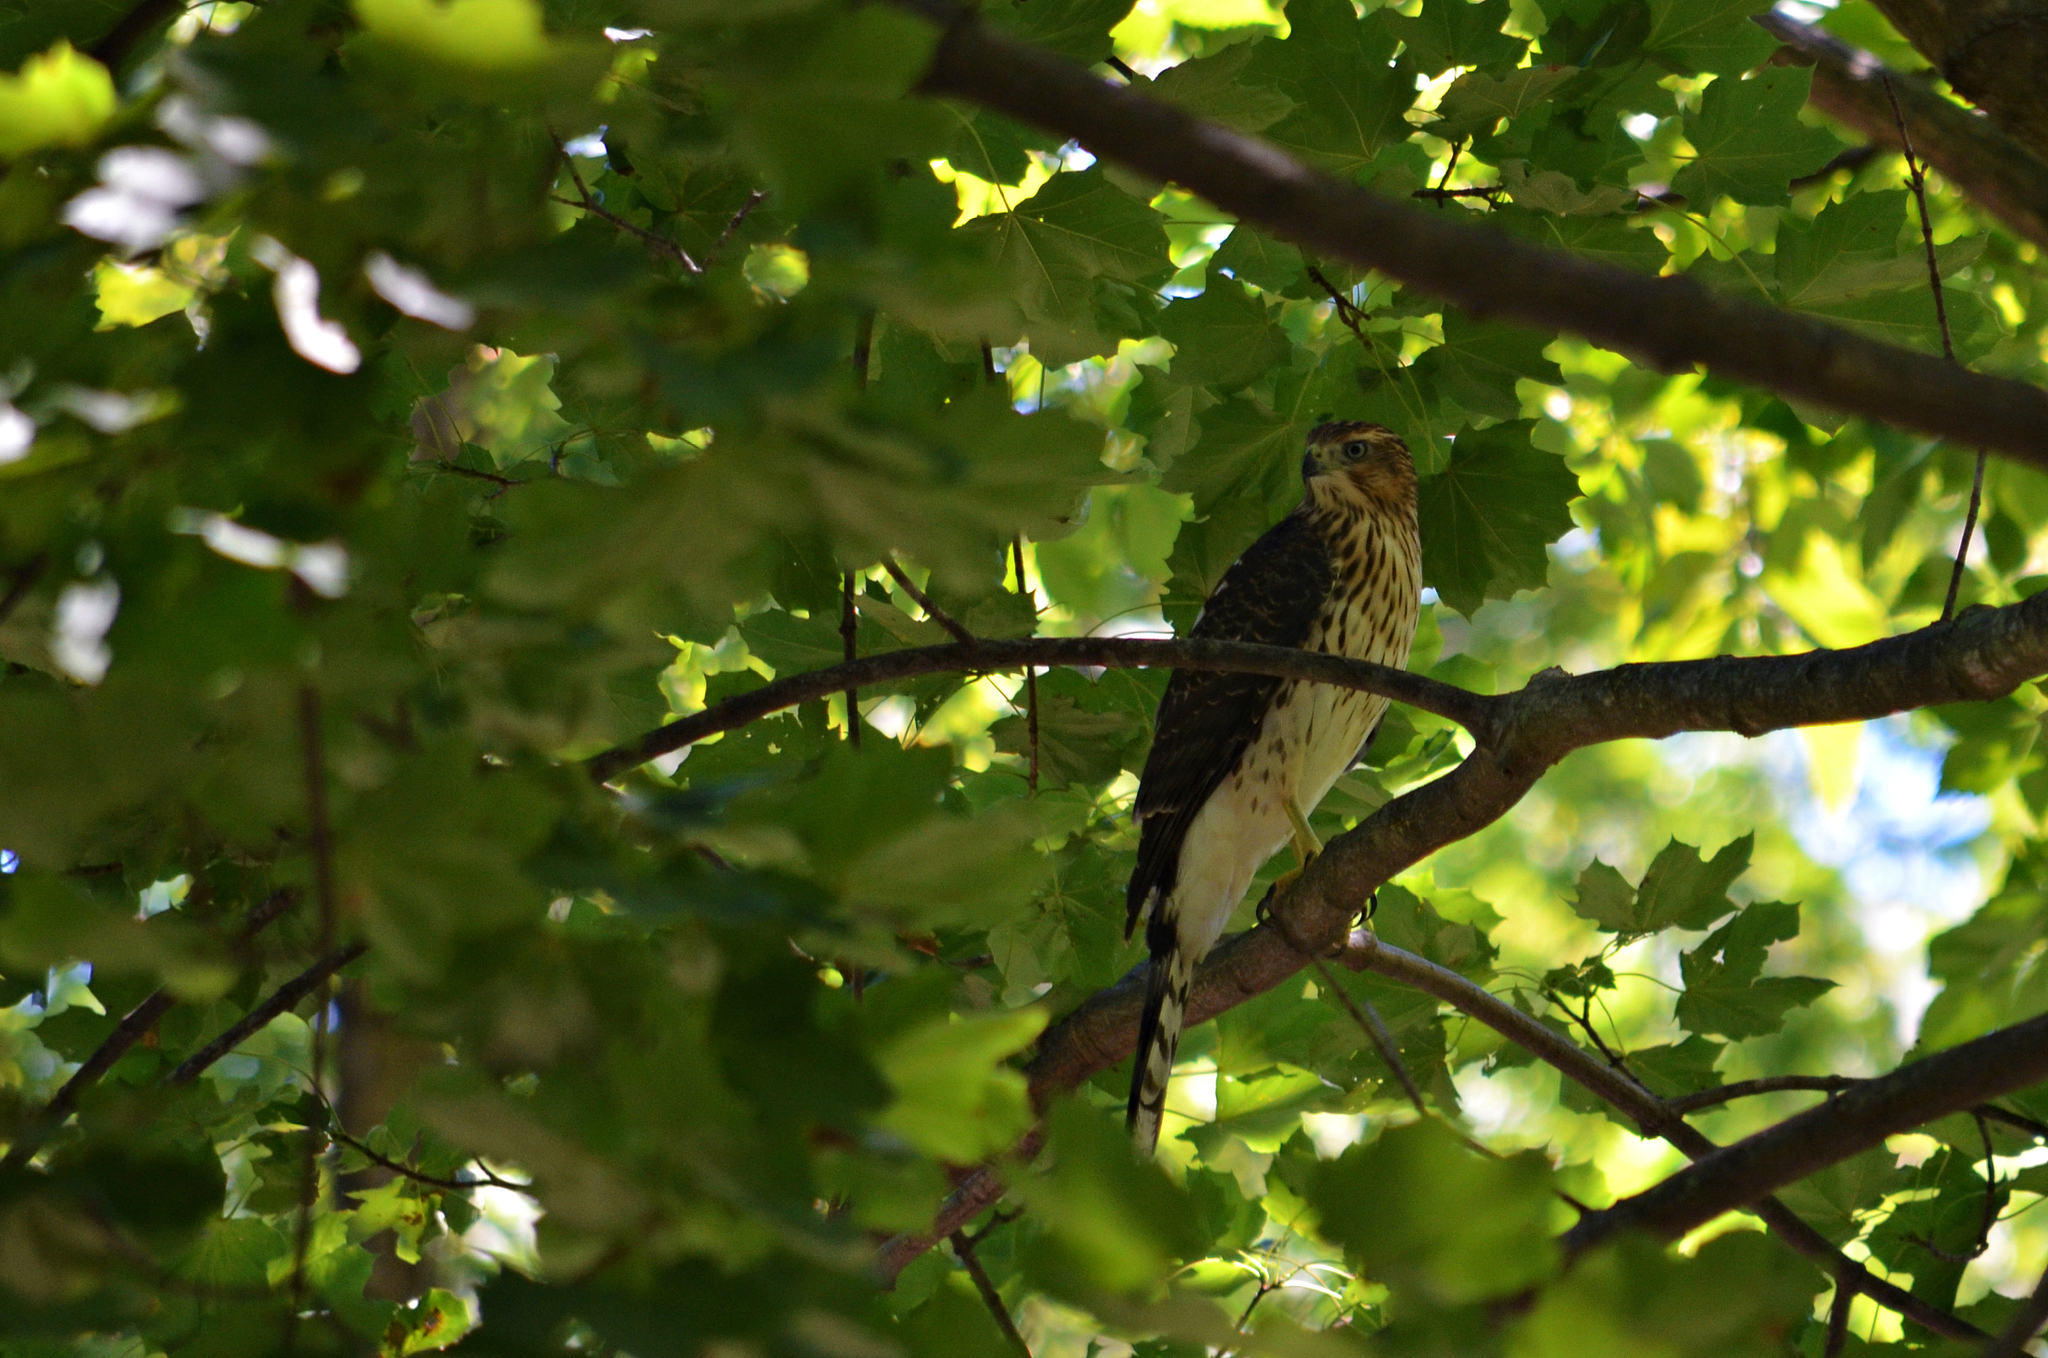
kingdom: Animalia
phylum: Chordata
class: Aves
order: Accipitriformes
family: Accipitridae
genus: Accipiter
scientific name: Accipiter cooperii
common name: Cooper's hawk
